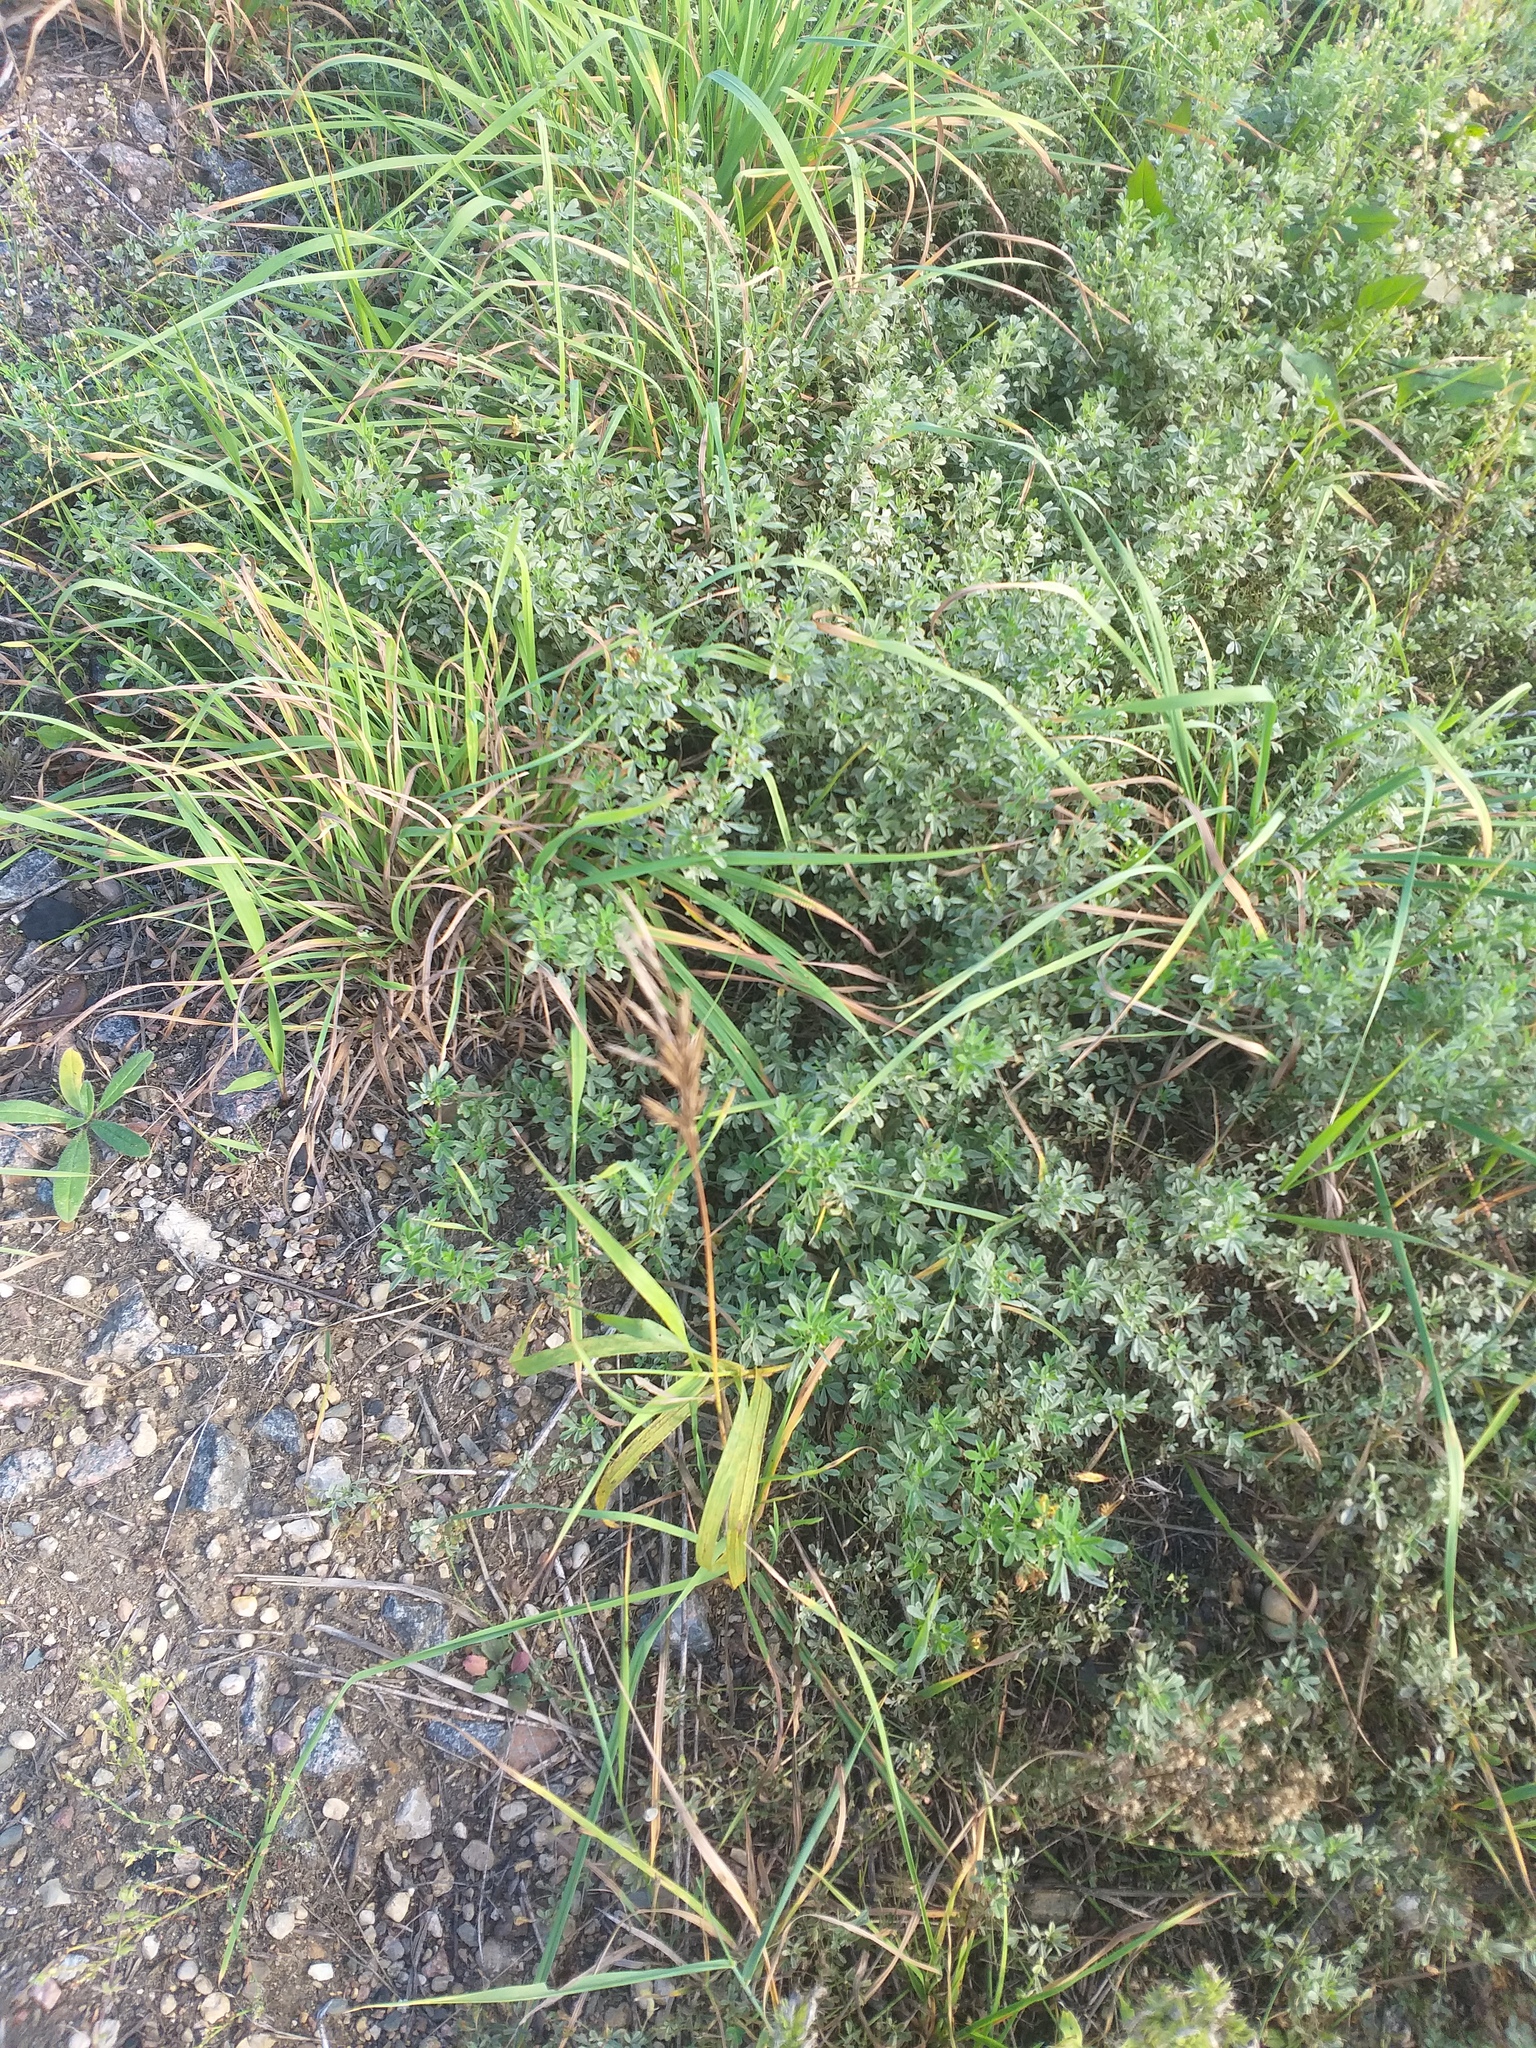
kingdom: Plantae
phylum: Tracheophyta
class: Liliopsida
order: Poales
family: Poaceae
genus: Bromus
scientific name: Bromus inermis
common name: Smooth brome
